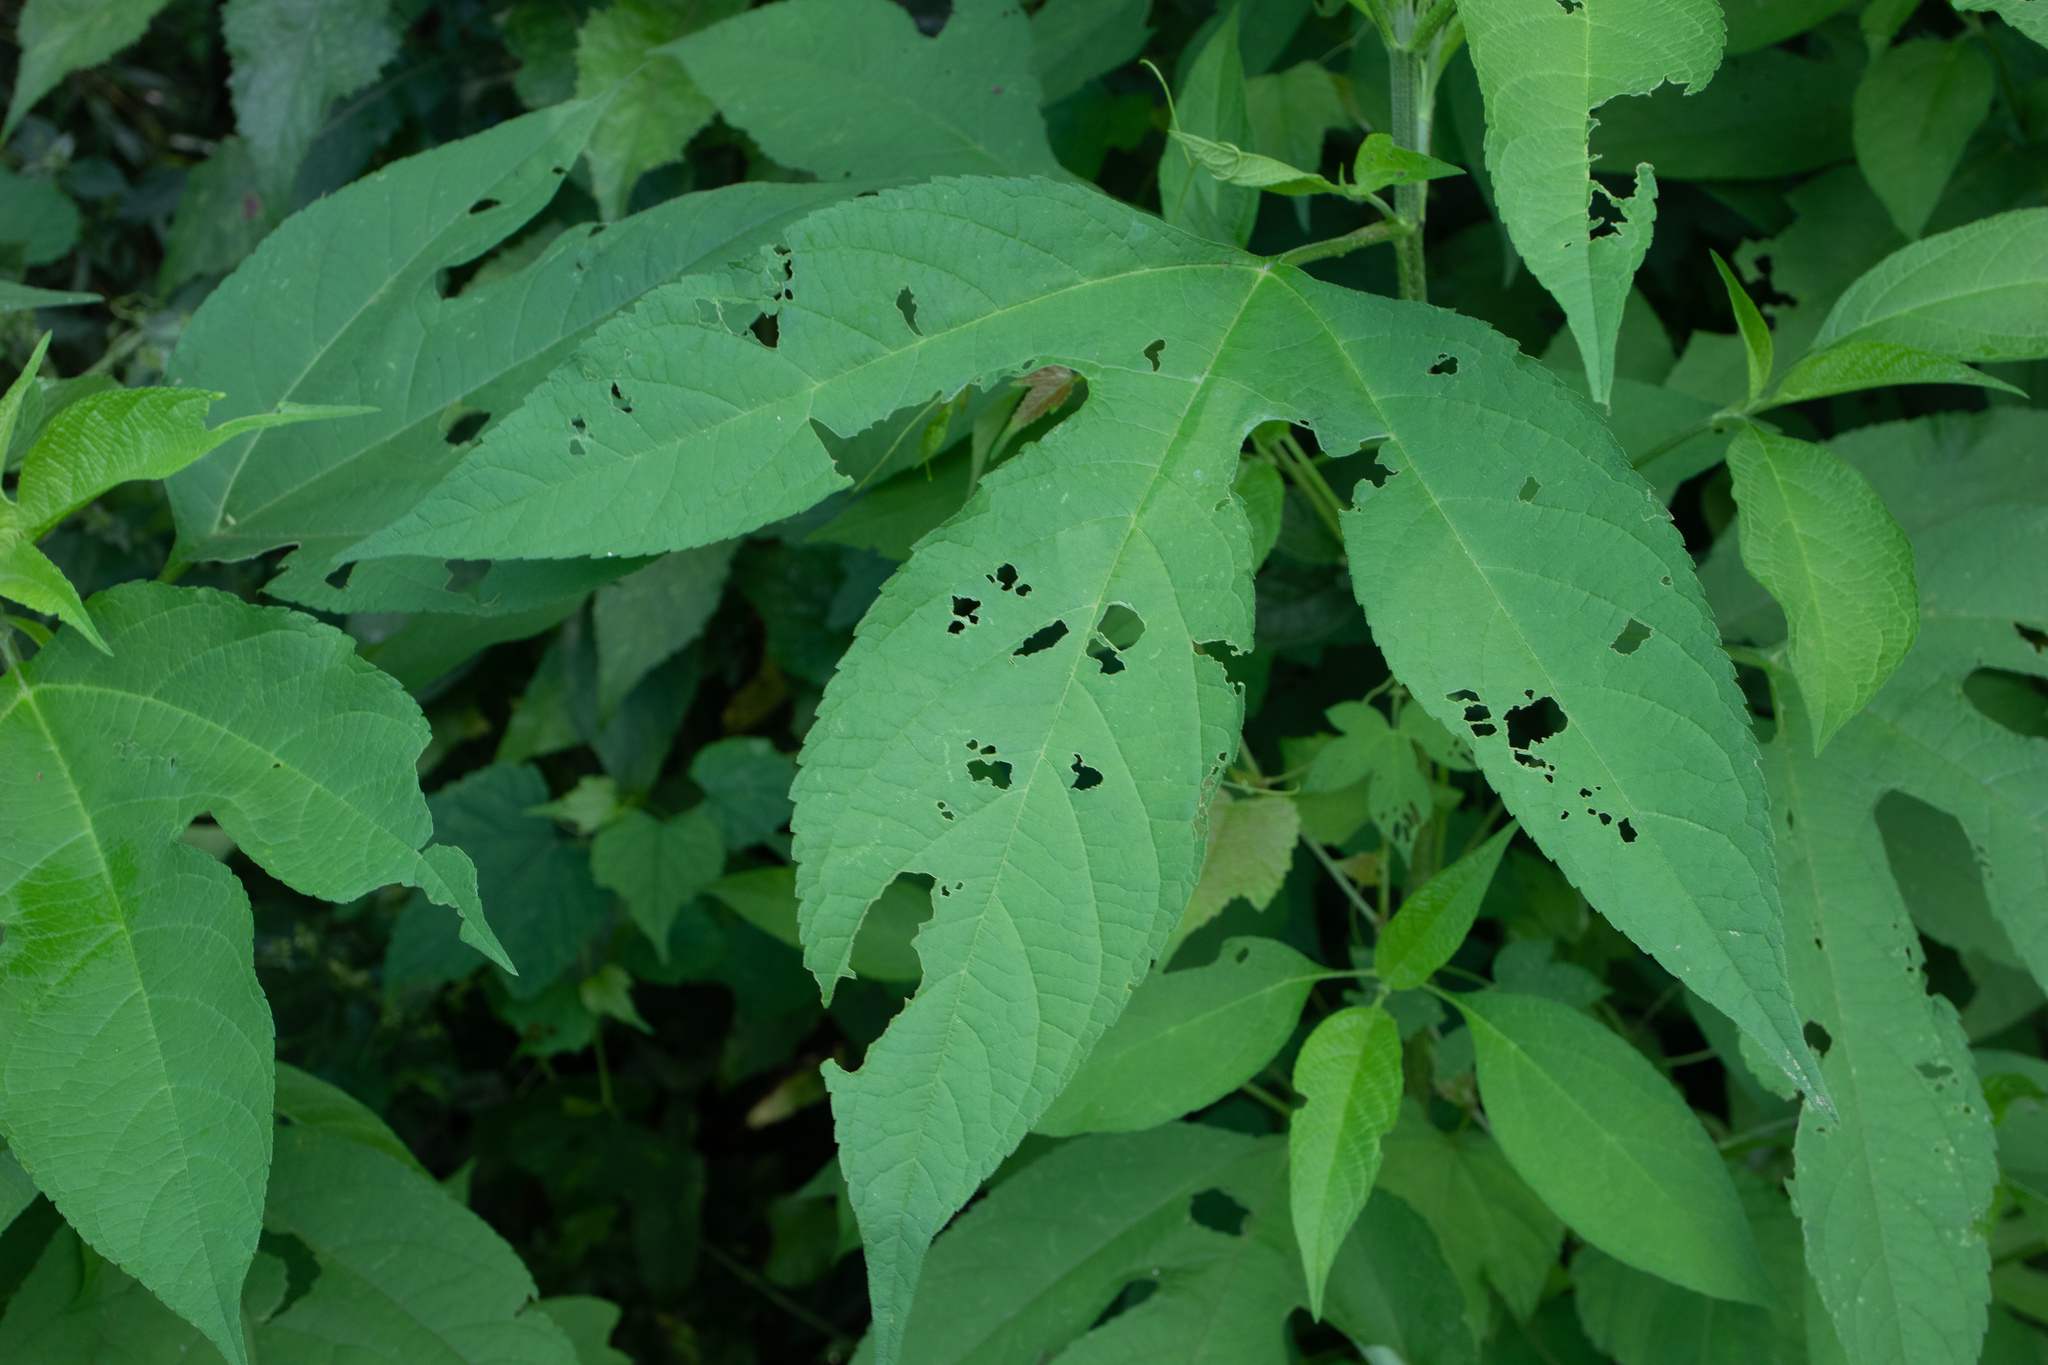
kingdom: Plantae
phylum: Tracheophyta
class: Magnoliopsida
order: Asterales
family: Asteraceae
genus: Ambrosia
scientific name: Ambrosia trifida
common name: Giant ragweed
